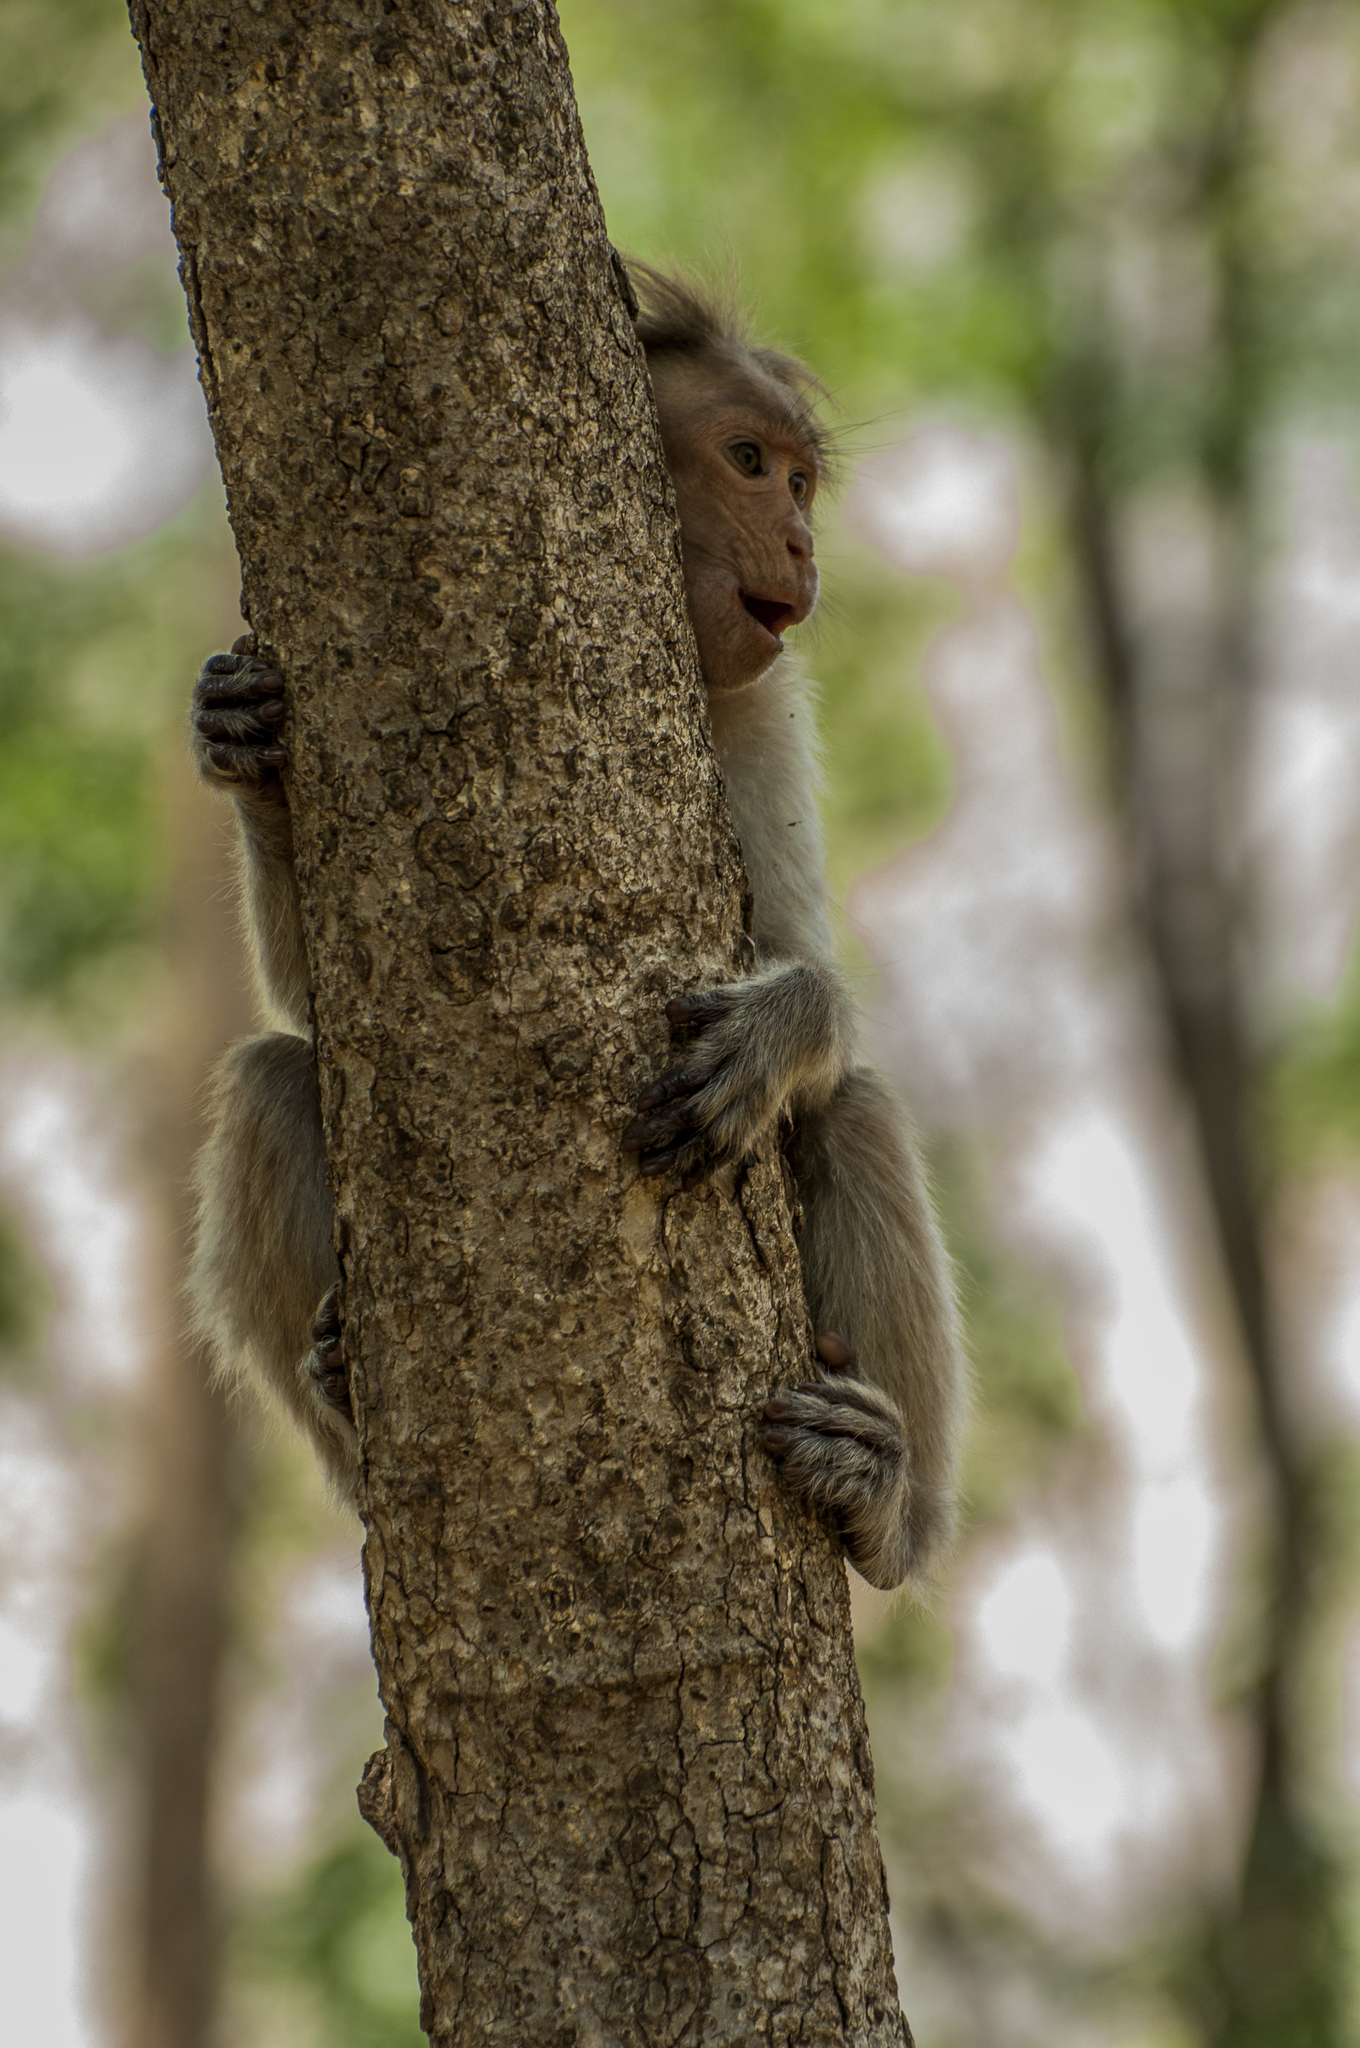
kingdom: Animalia
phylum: Chordata
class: Mammalia
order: Primates
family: Cercopithecidae
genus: Macaca
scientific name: Macaca radiata
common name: Bonnet macaque
